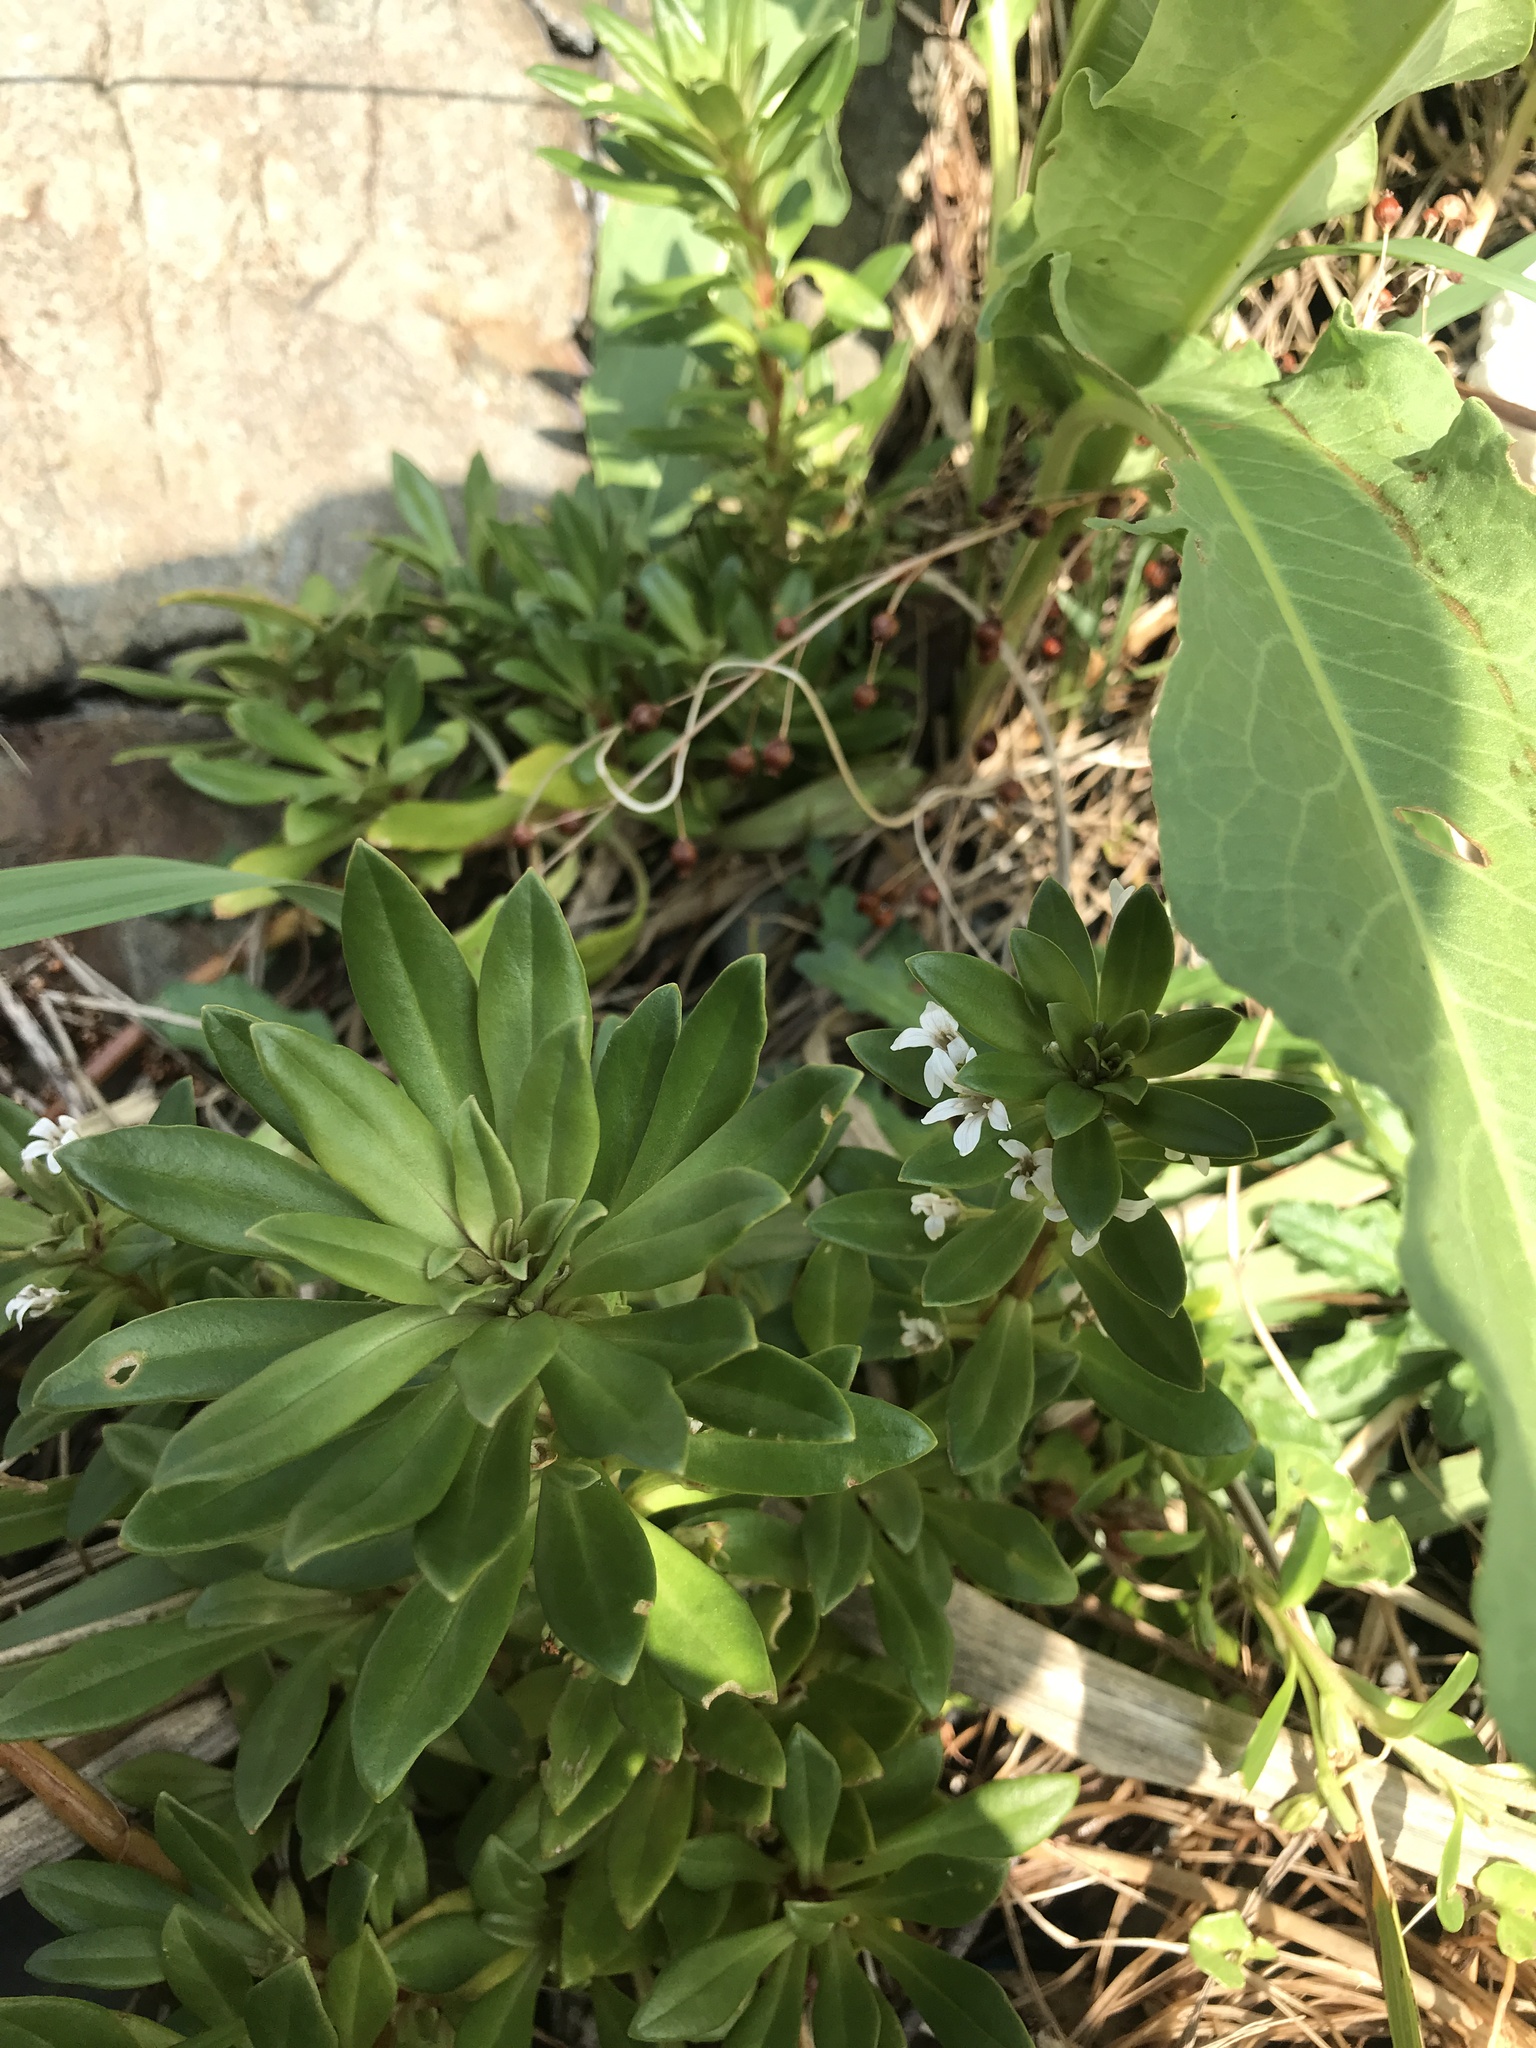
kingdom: Plantae
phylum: Tracheophyta
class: Magnoliopsida
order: Ericales
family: Primulaceae
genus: Lysimachia
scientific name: Lysimachia mauritiana
